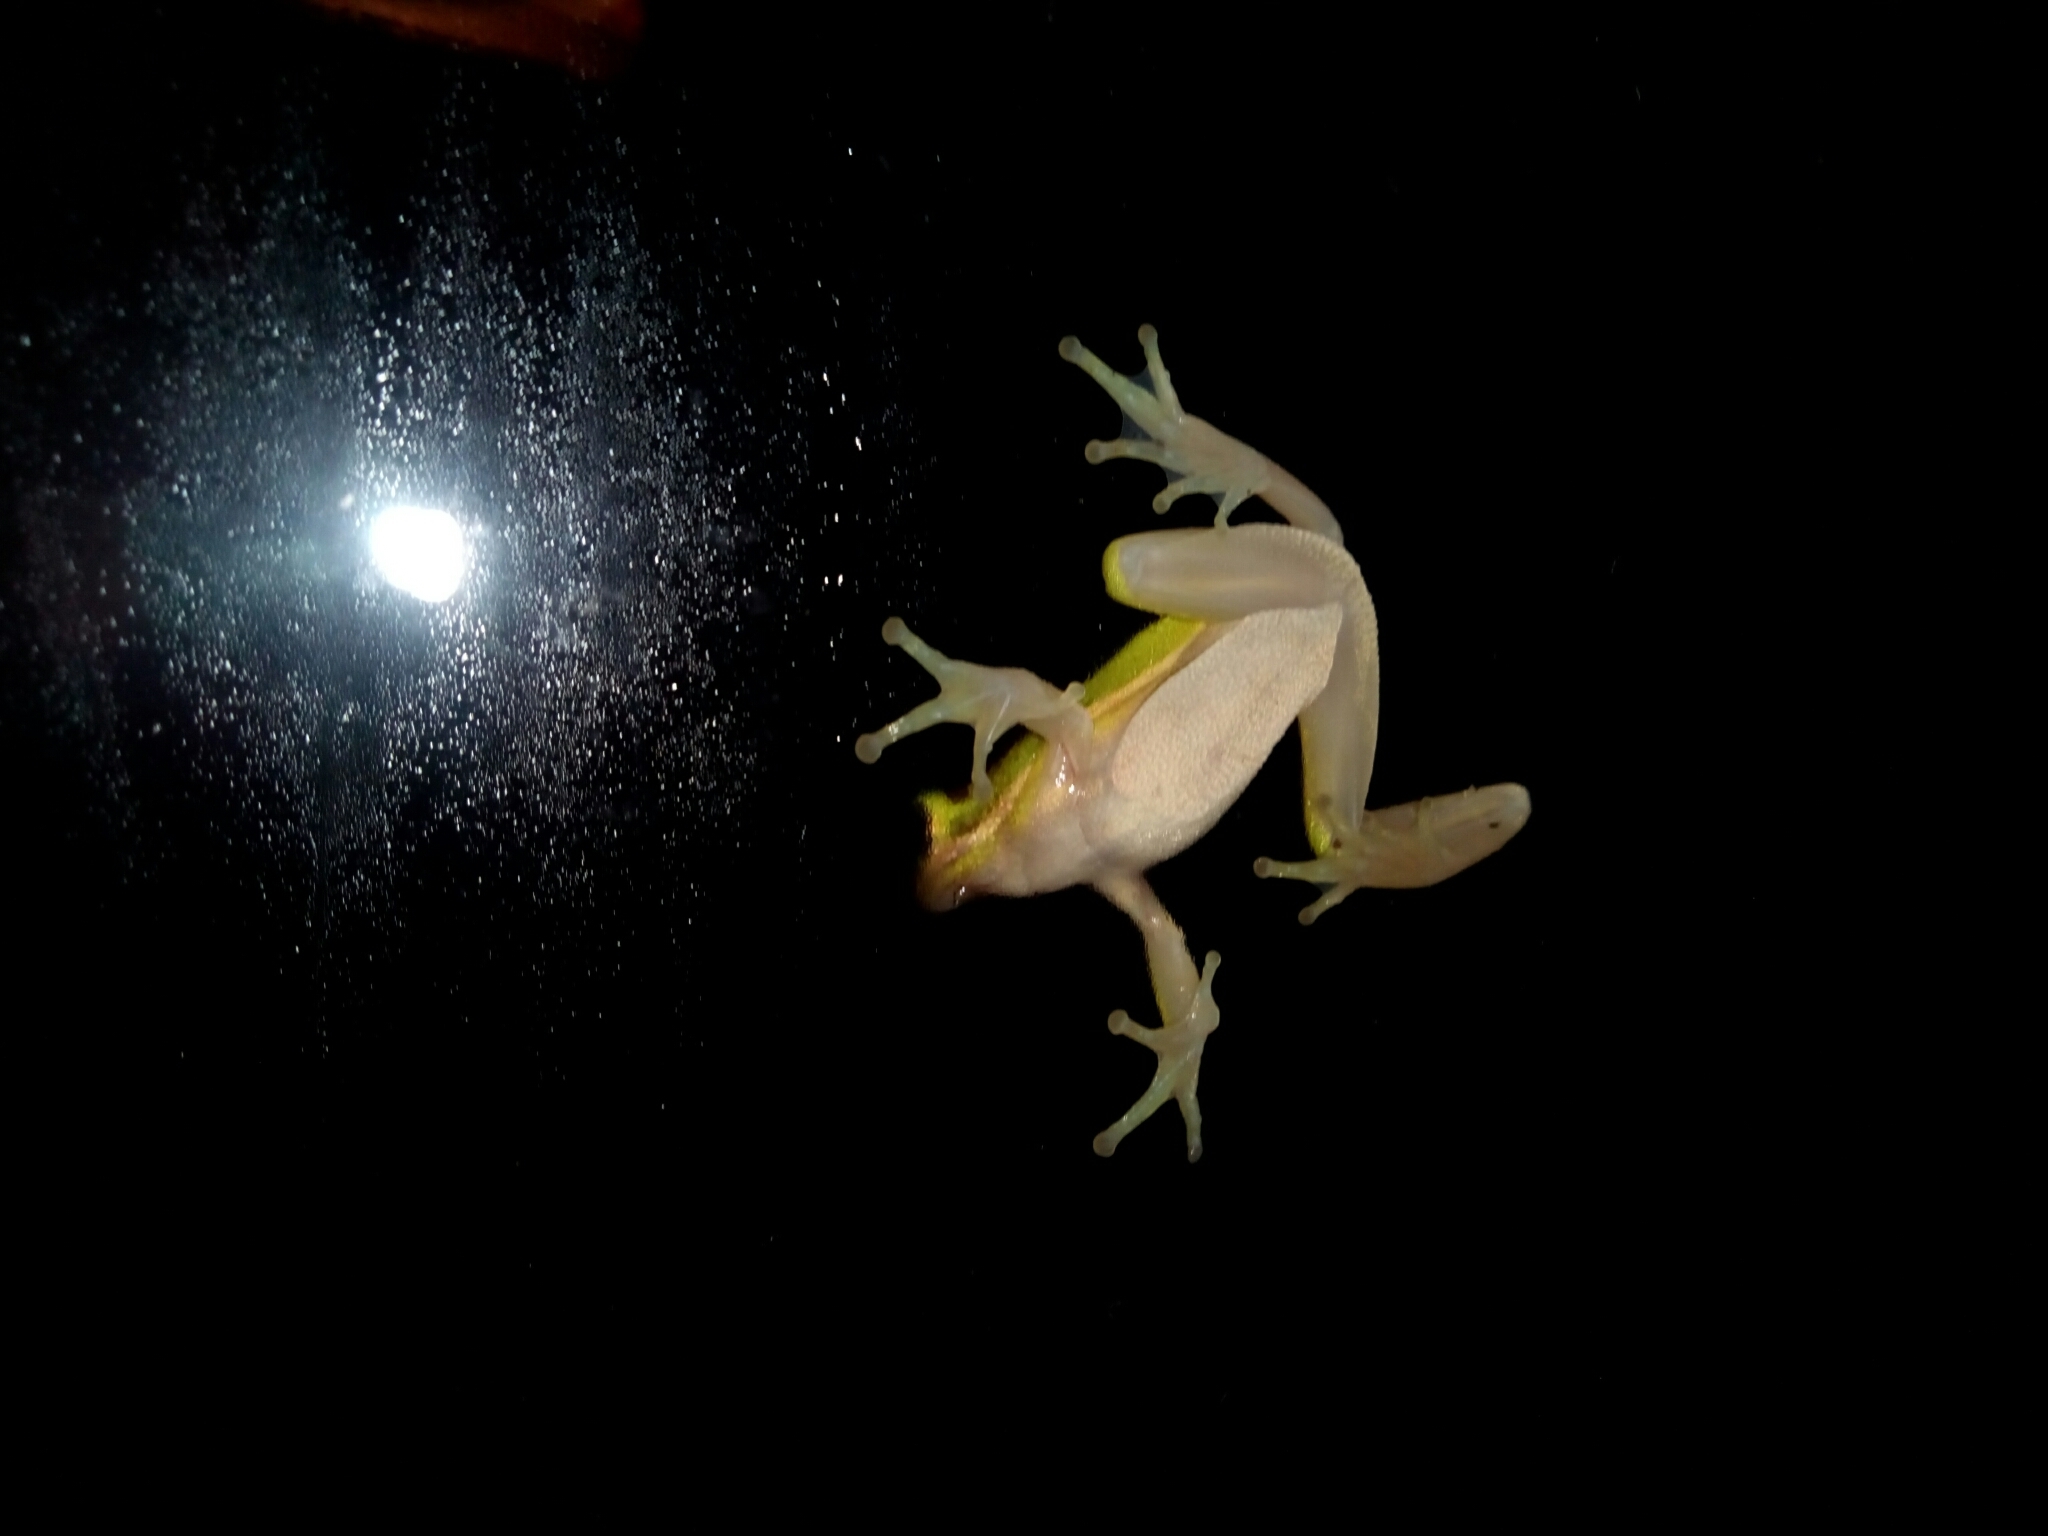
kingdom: Animalia
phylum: Chordata
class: Amphibia
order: Anura
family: Hylidae
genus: Dryophytes
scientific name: Dryophytes cinereus
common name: Green treefrog
